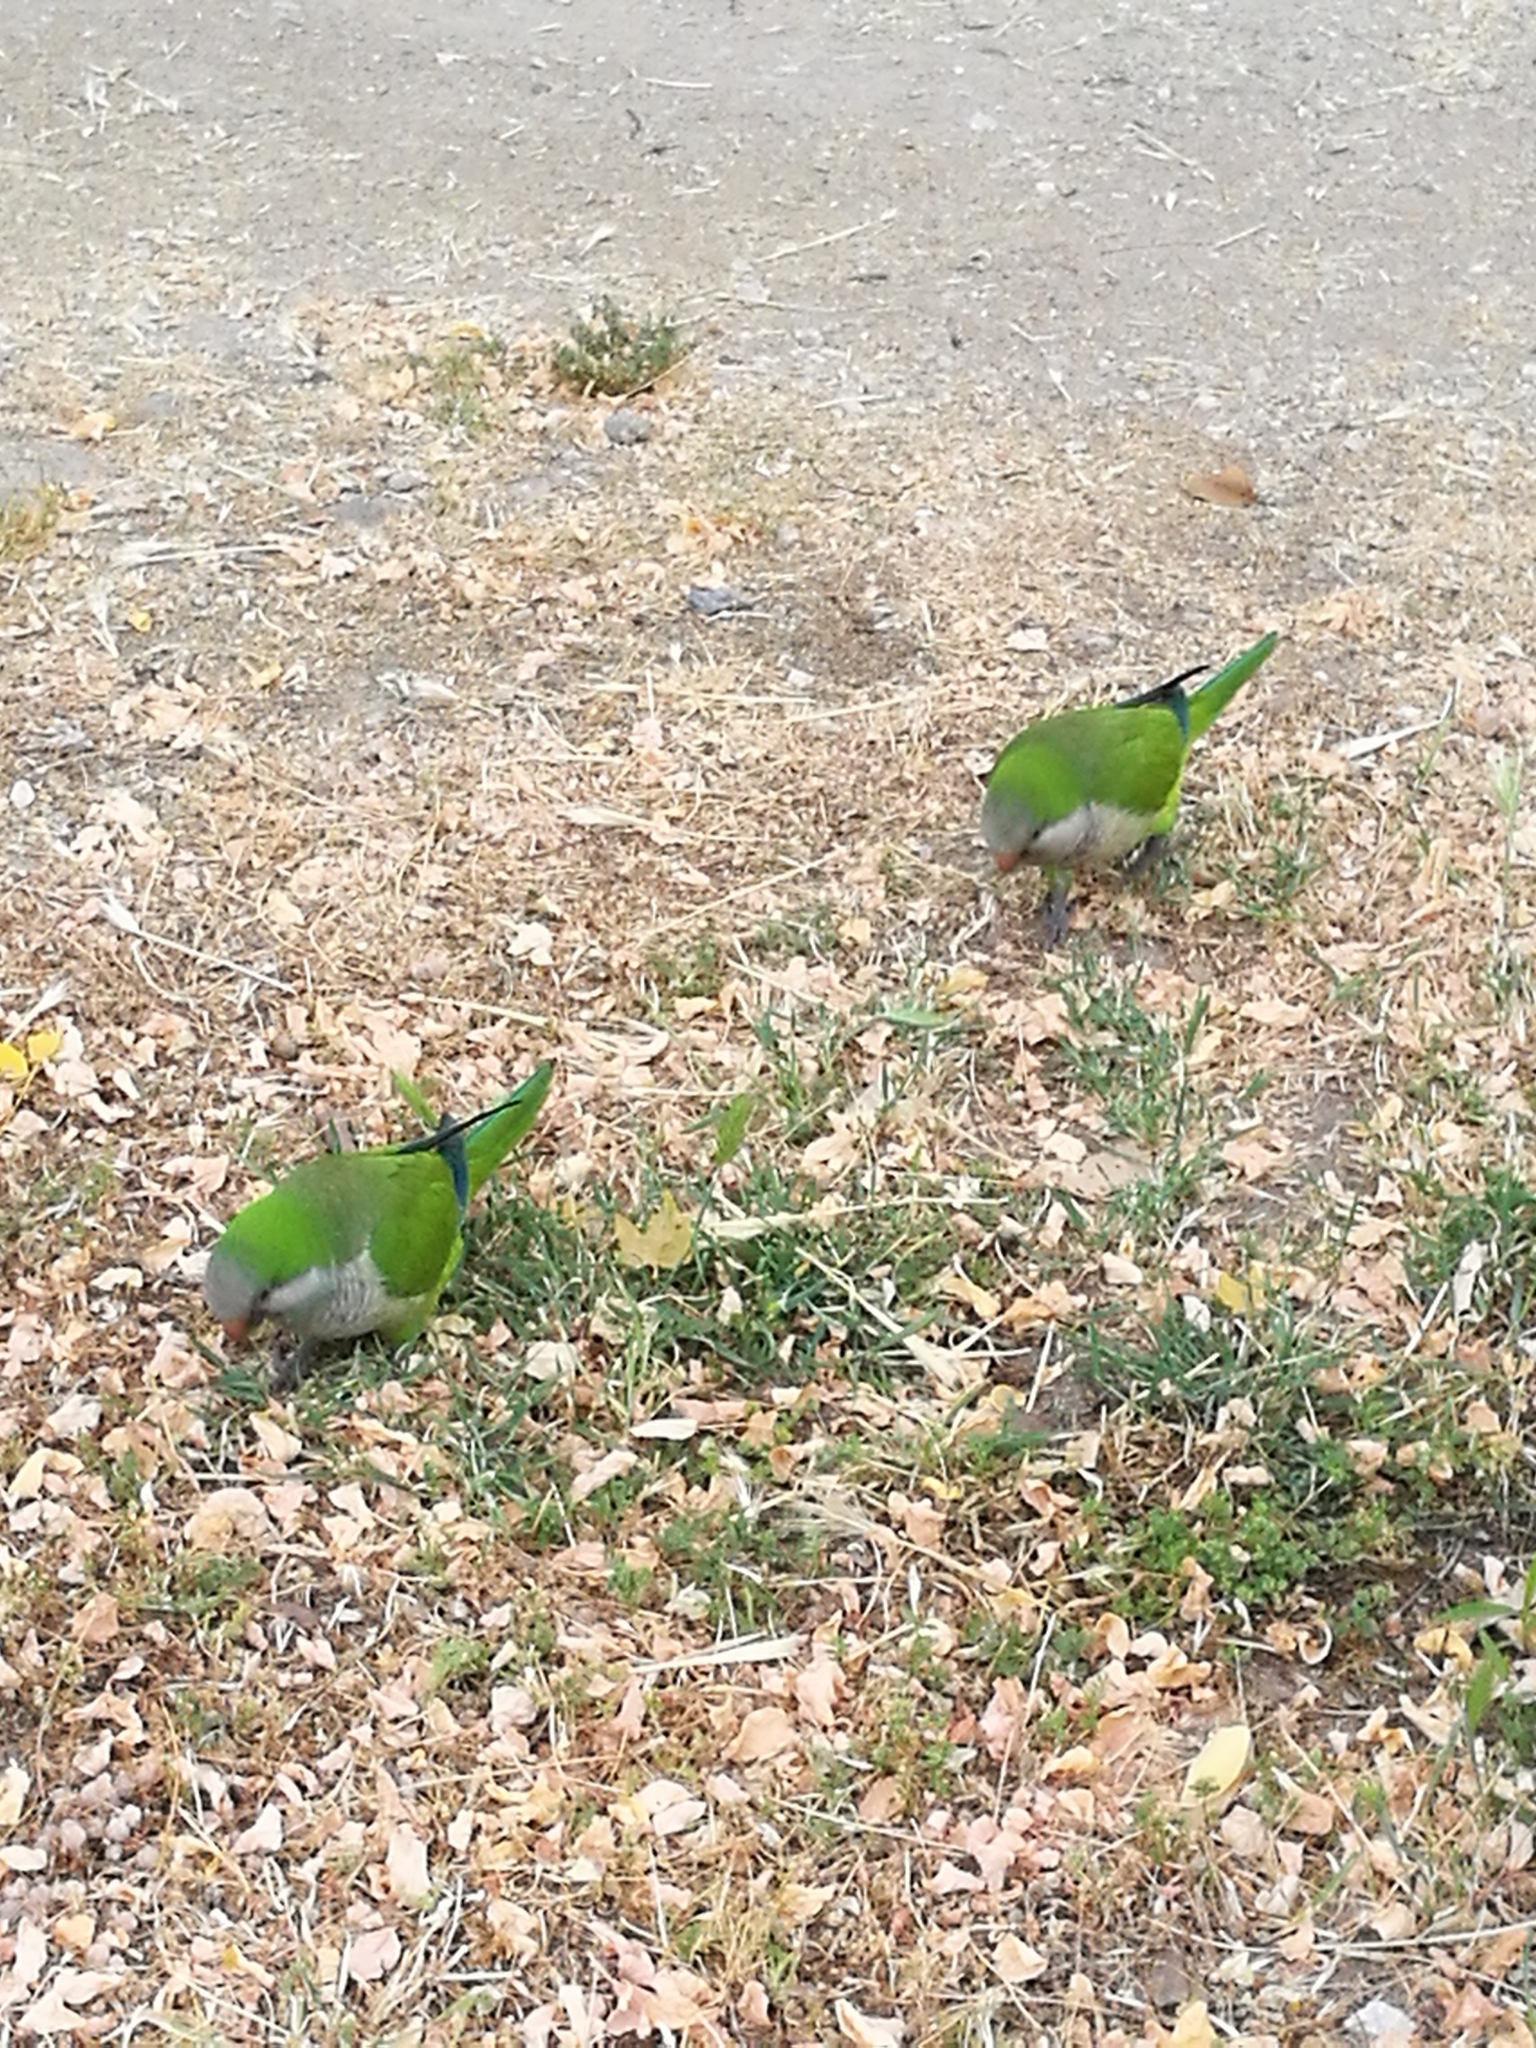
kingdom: Animalia
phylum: Chordata
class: Aves
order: Psittaciformes
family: Psittacidae
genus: Myiopsitta
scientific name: Myiopsitta monachus
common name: Monk parakeet
